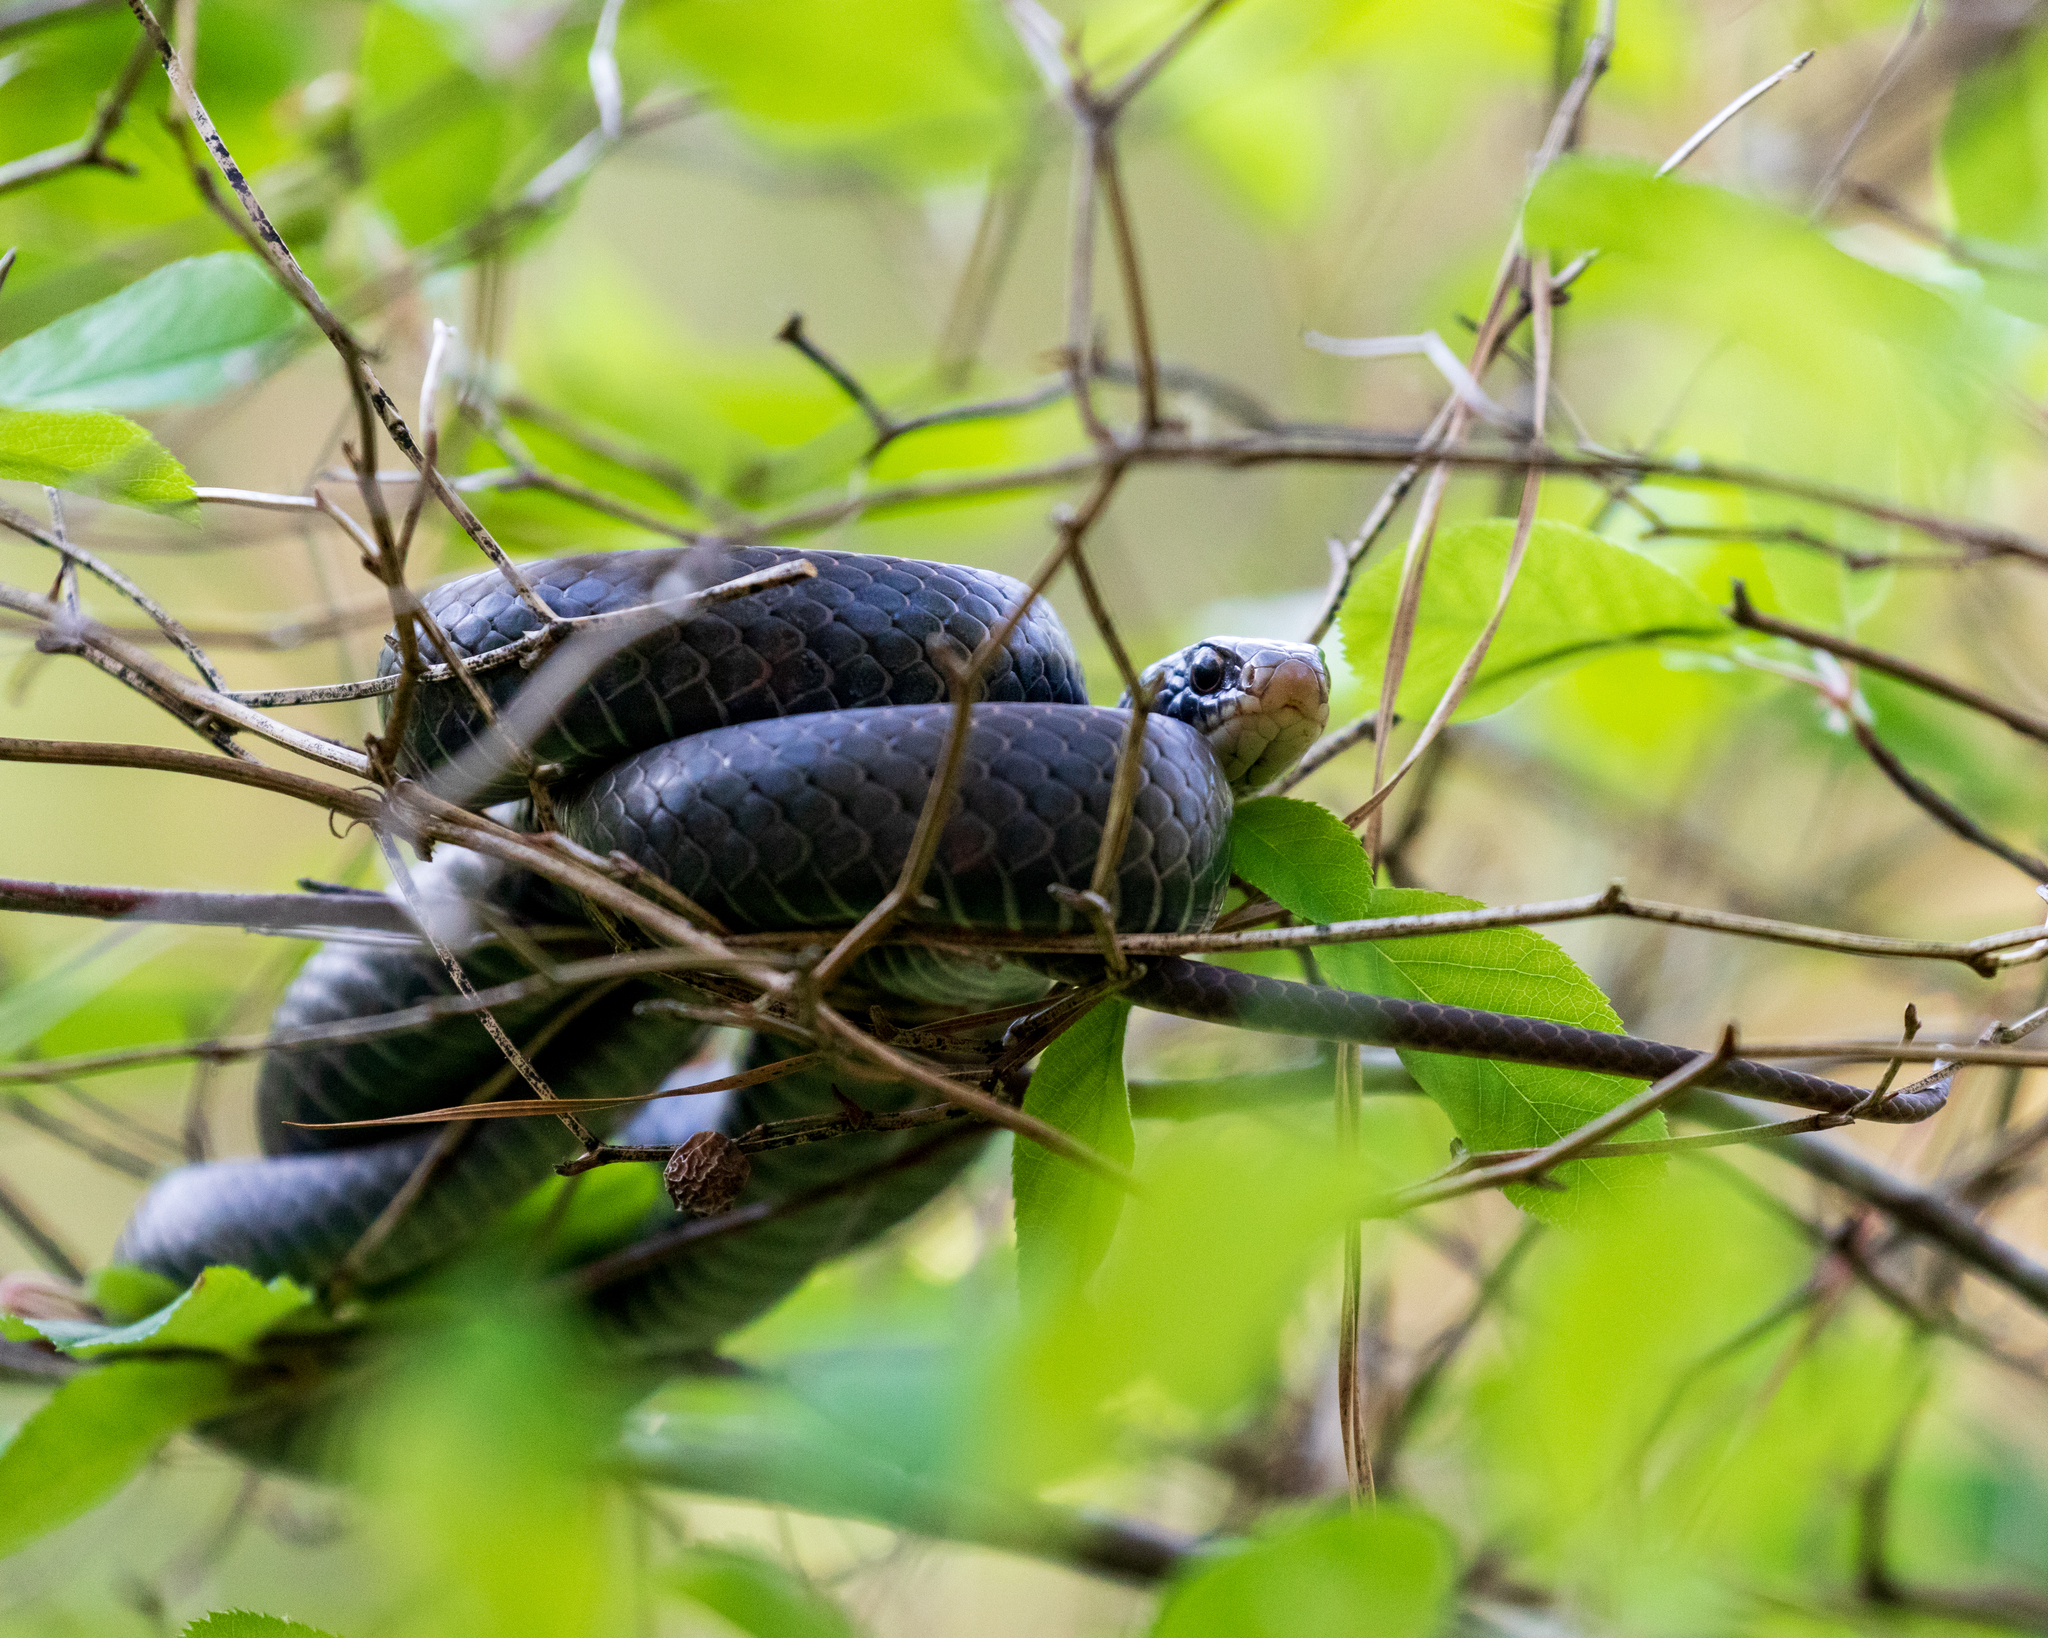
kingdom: Animalia
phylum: Chordata
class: Squamata
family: Colubridae
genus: Coluber
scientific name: Coluber constrictor
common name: Eastern racer
